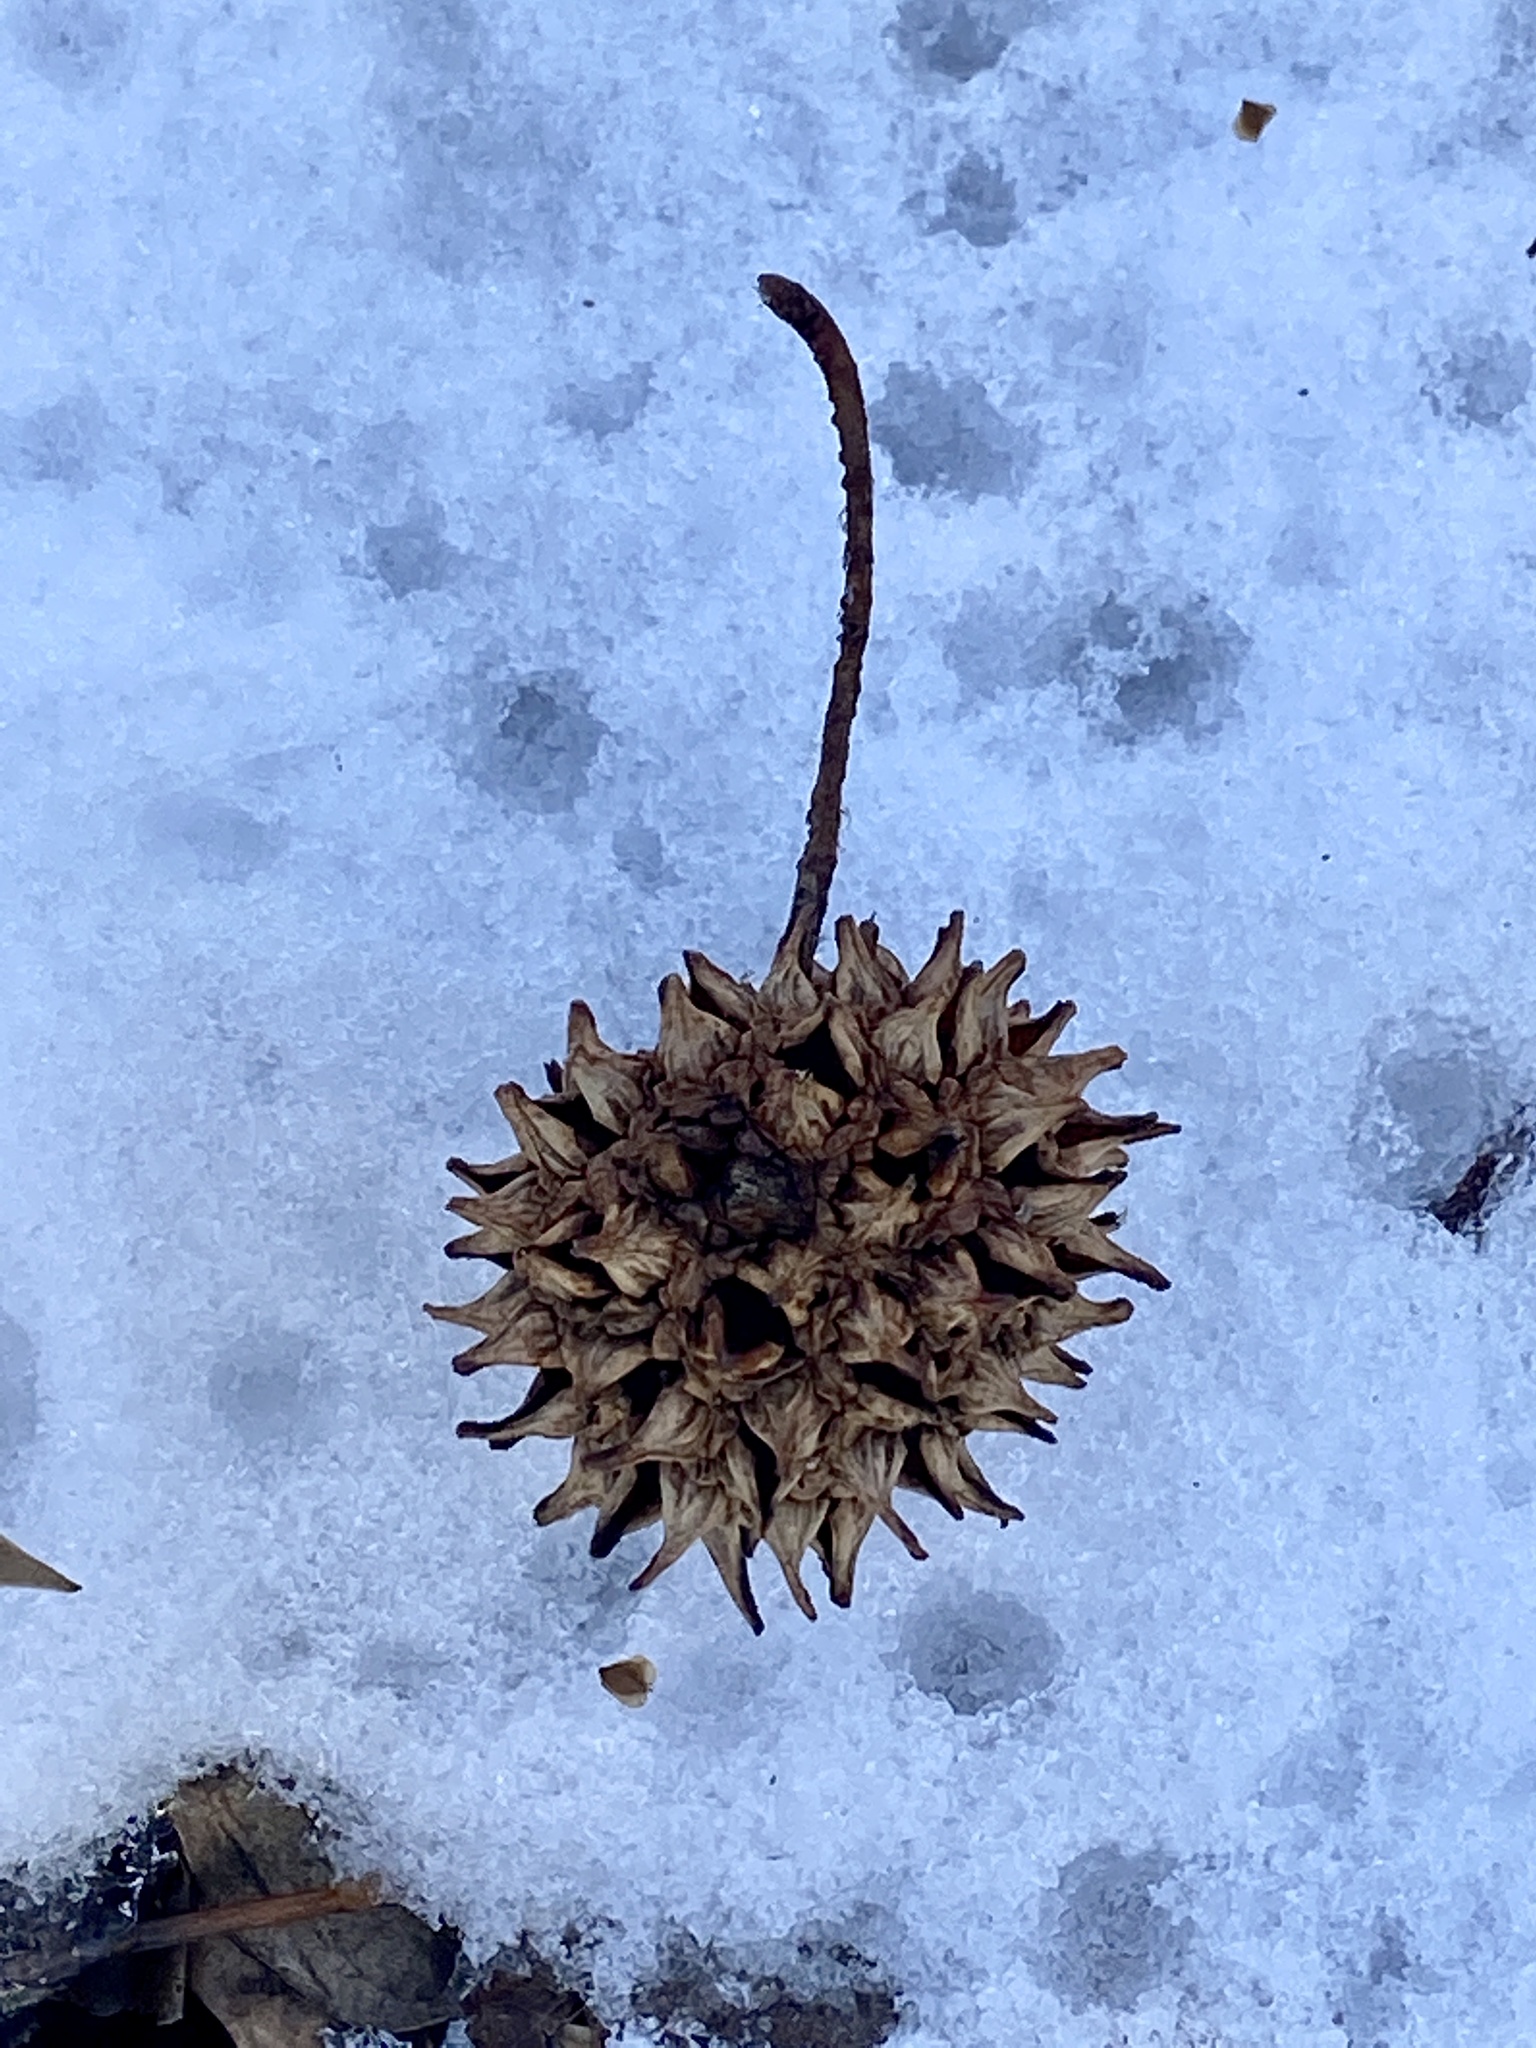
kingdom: Plantae
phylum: Tracheophyta
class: Magnoliopsida
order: Saxifragales
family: Altingiaceae
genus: Liquidambar
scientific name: Liquidambar styraciflua
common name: Sweet gum
